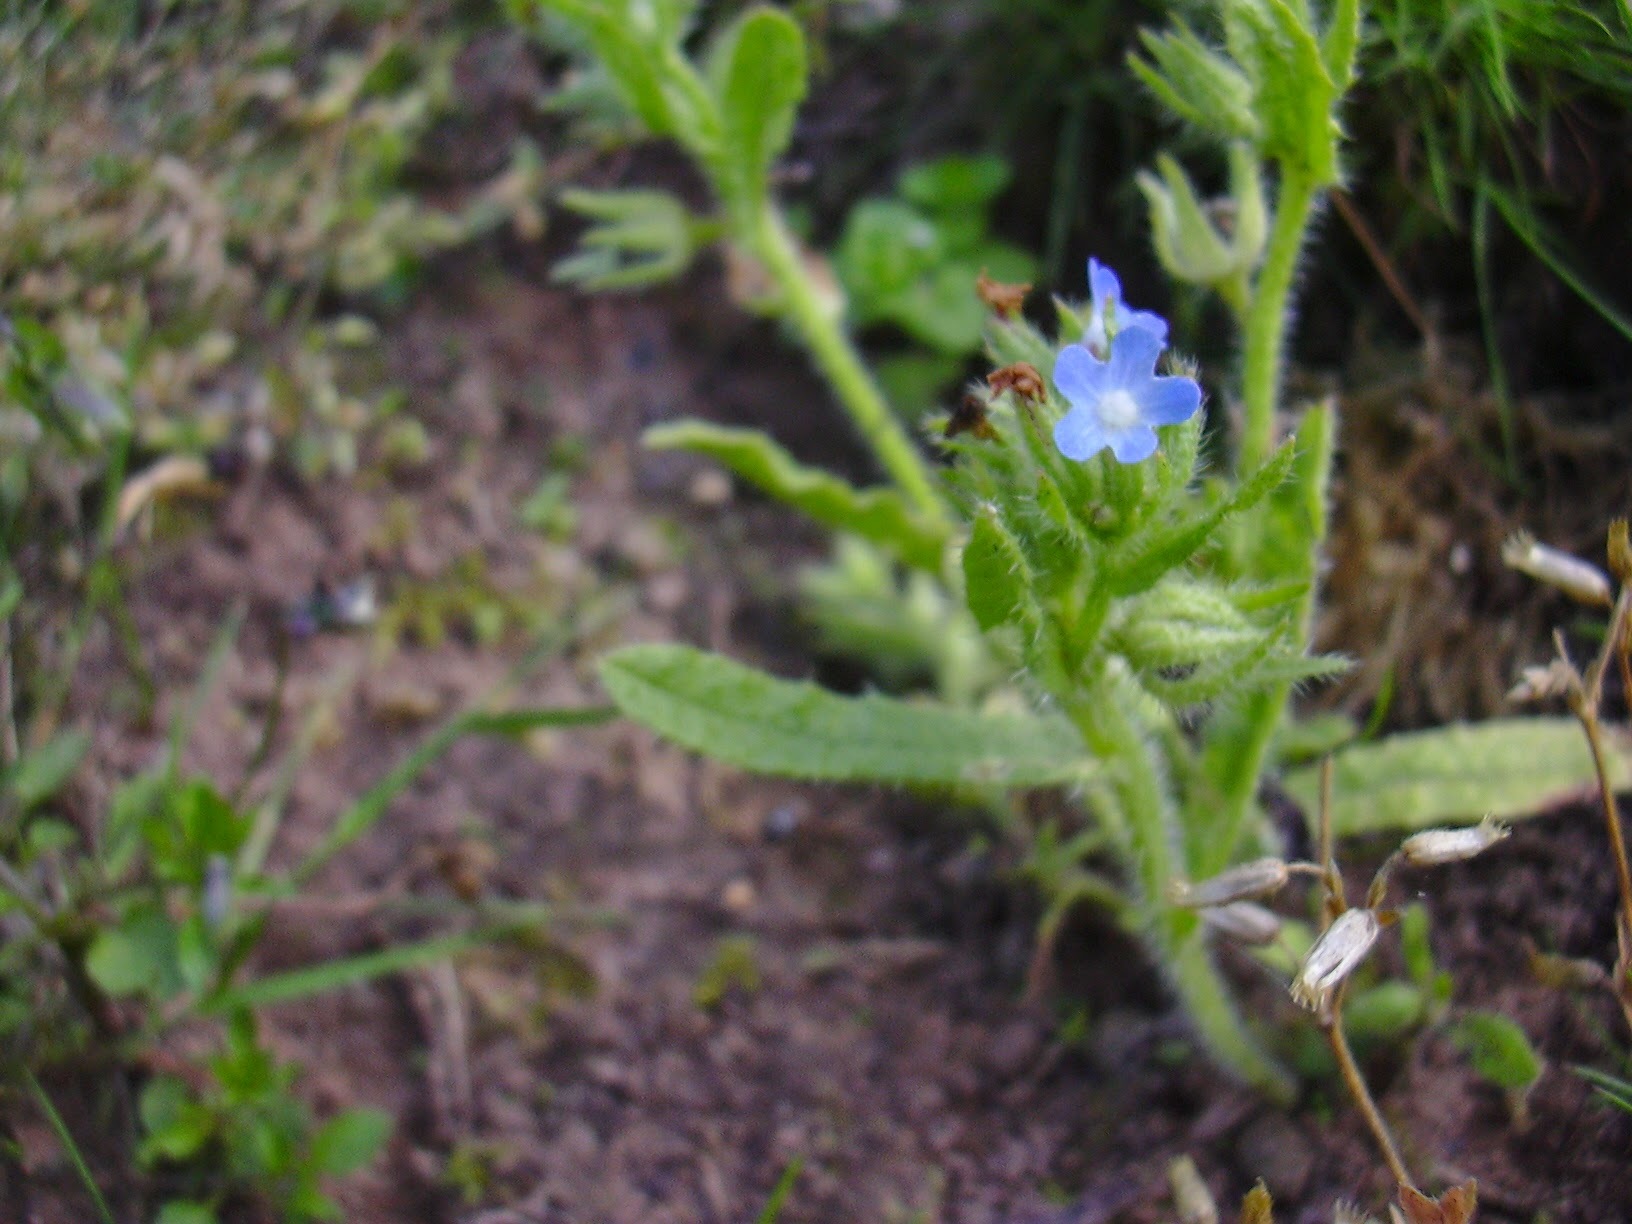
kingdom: Plantae
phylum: Tracheophyta
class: Magnoliopsida
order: Boraginales
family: Boraginaceae
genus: Lycopsis
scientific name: Lycopsis arvensis
